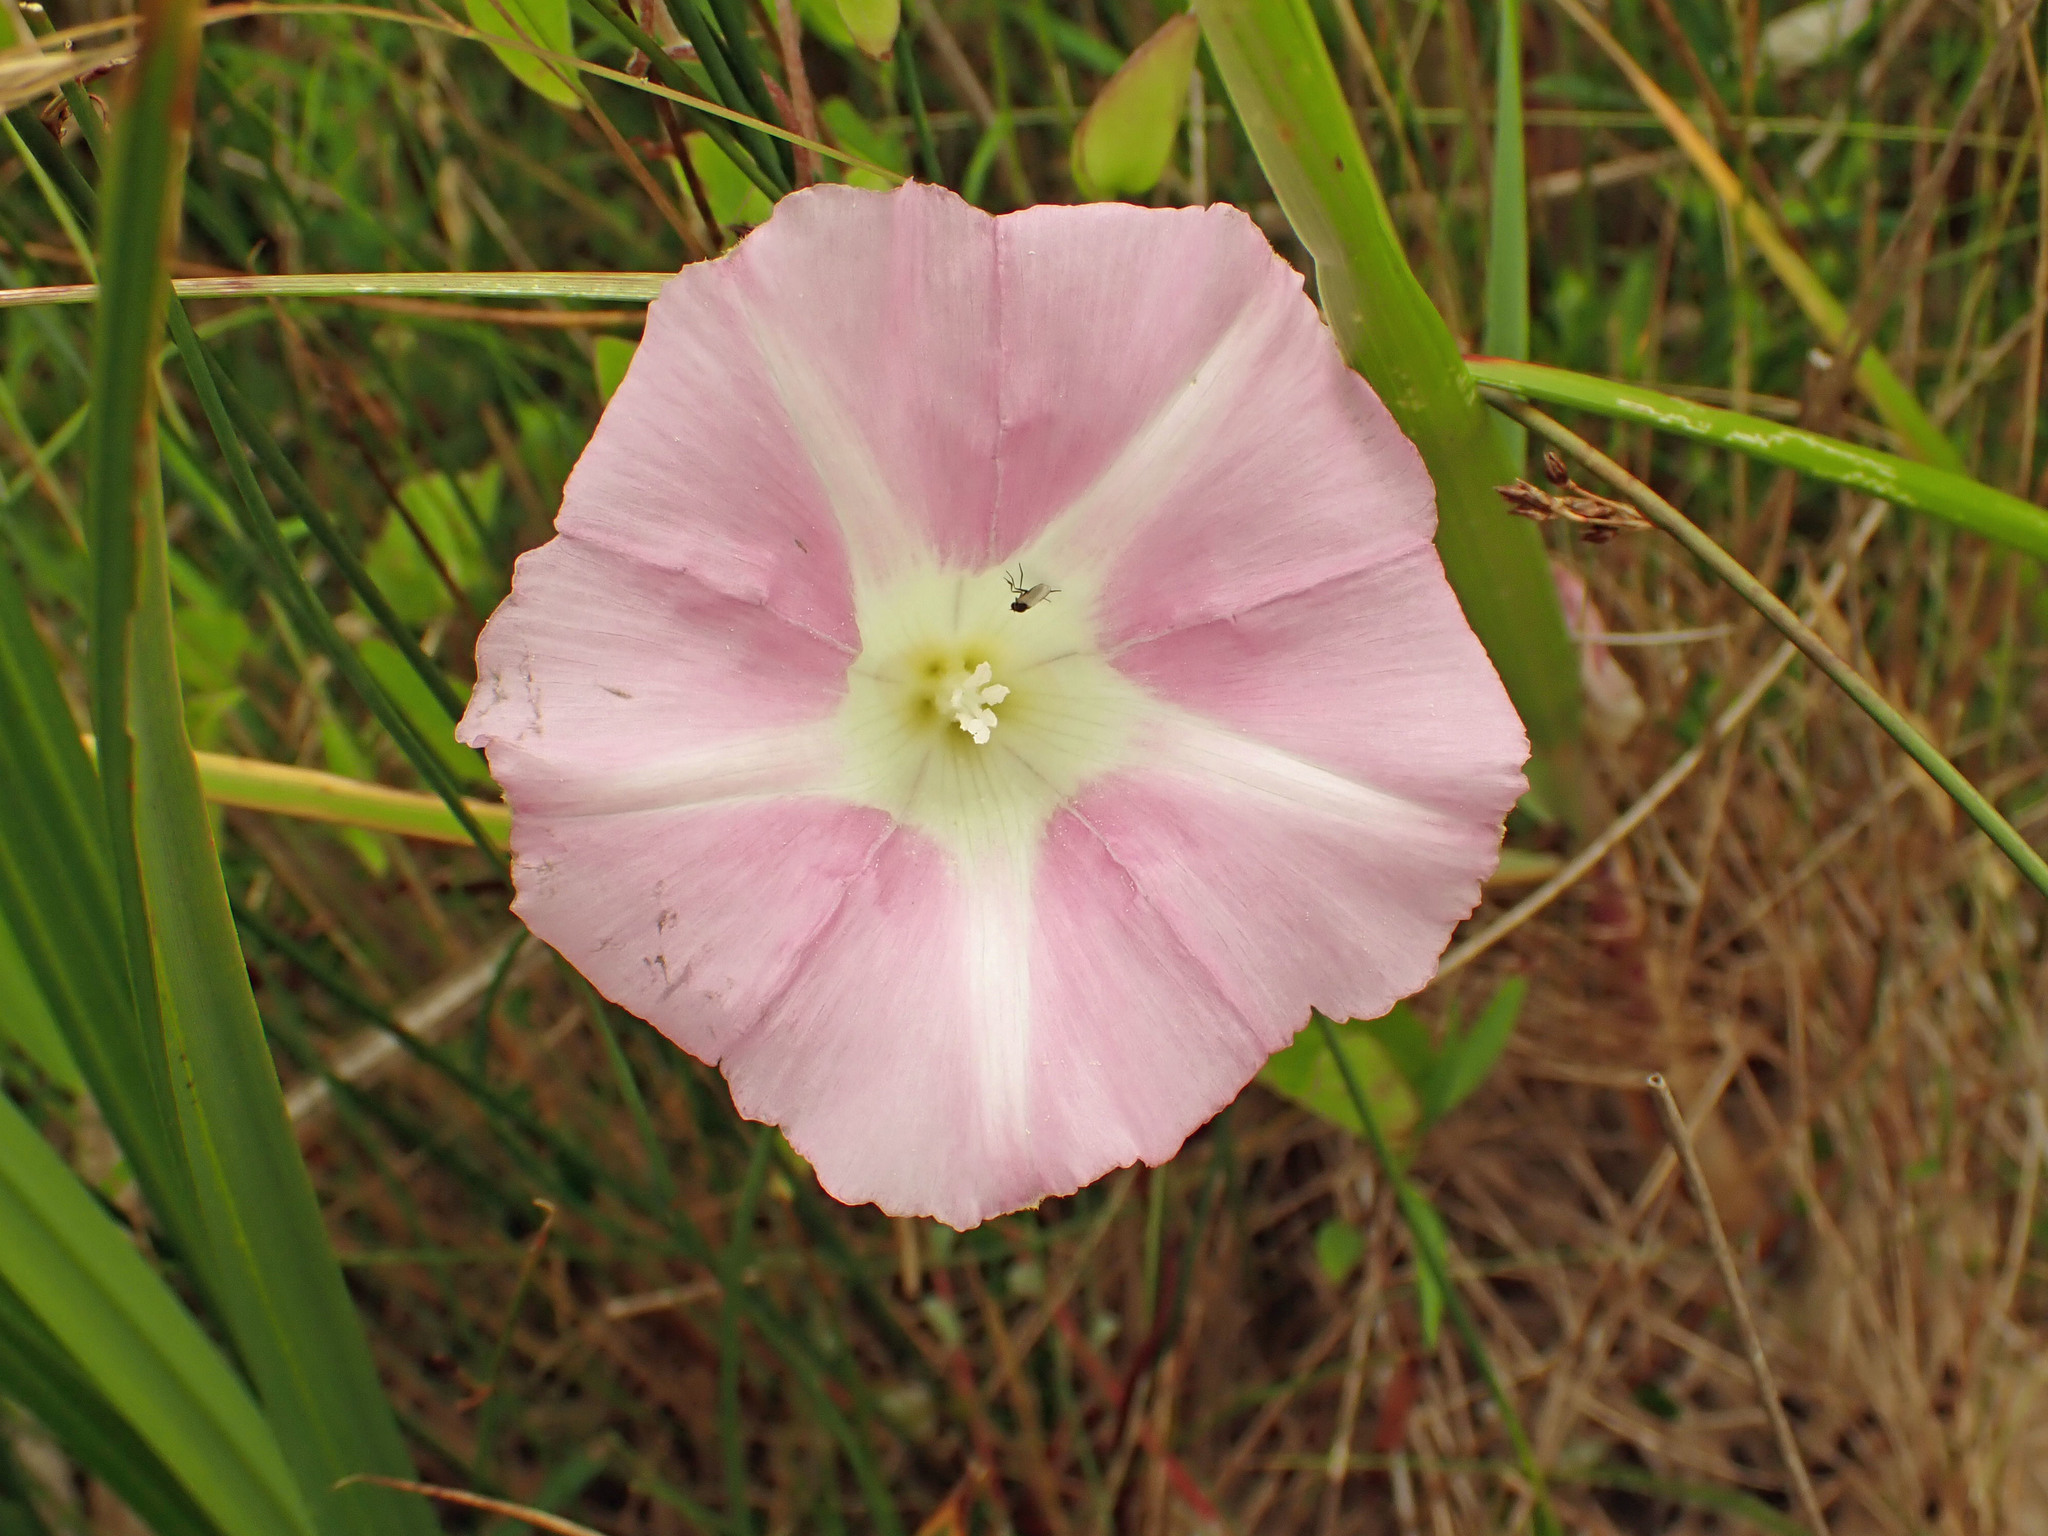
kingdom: Plantae
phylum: Tracheophyta
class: Magnoliopsida
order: Solanales
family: Convolvulaceae
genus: Calystegia
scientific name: Calystegia sepium
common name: Hedge bindweed
